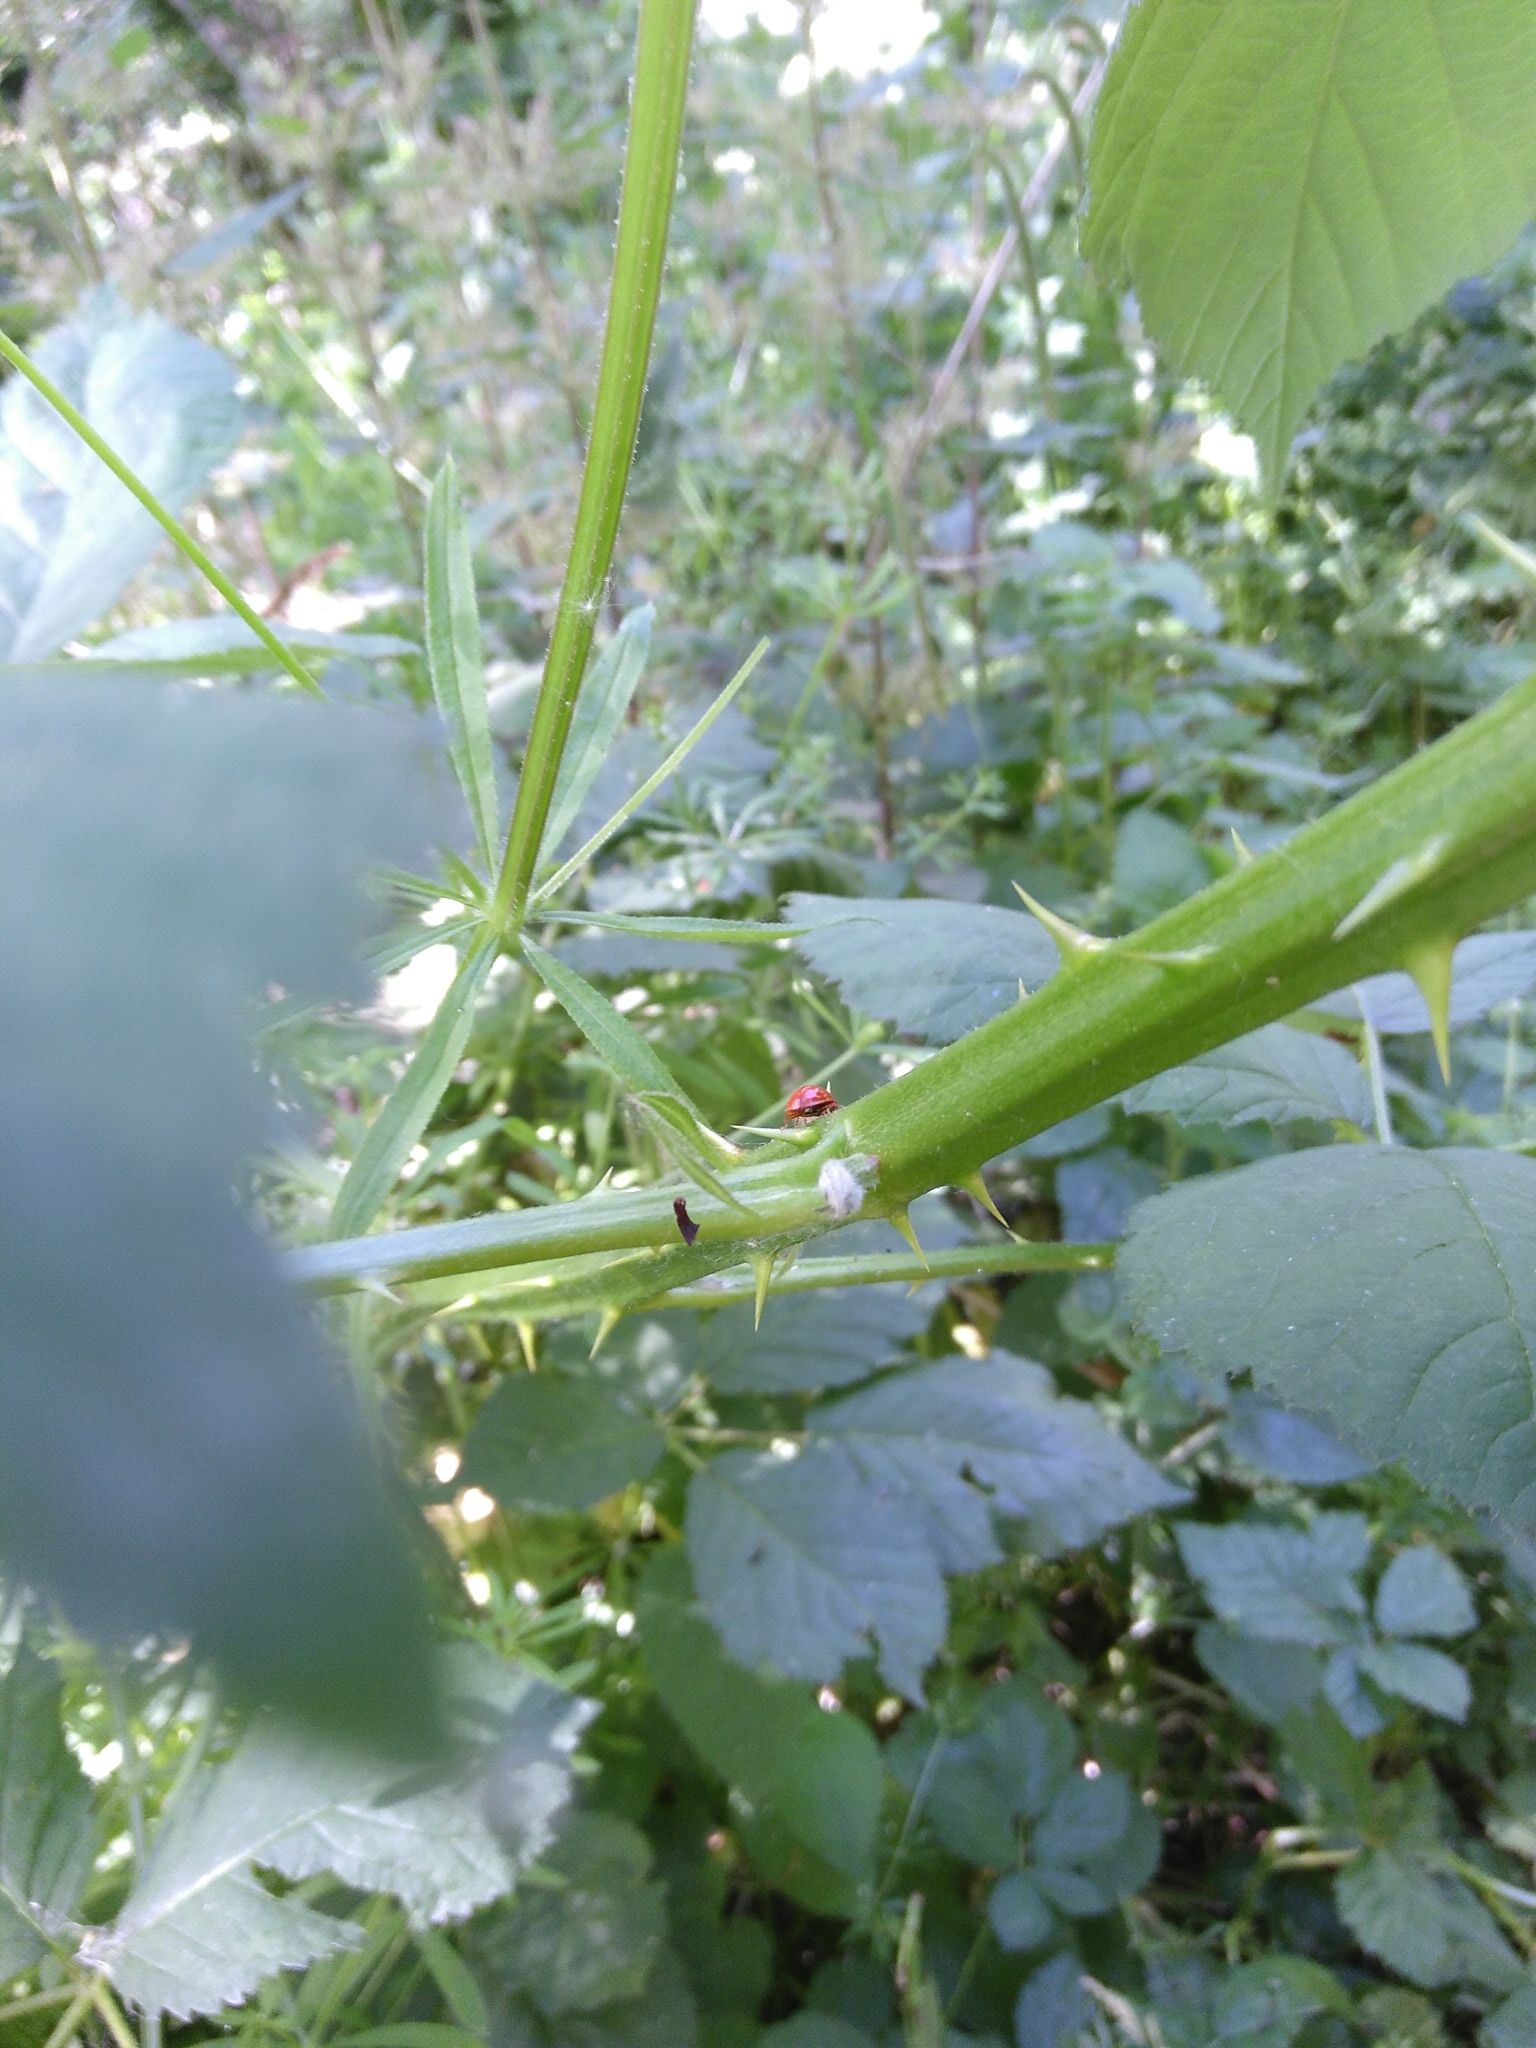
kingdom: Animalia
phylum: Arthropoda
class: Insecta
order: Coleoptera
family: Coccinellidae
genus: Harmonia
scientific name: Harmonia axyridis
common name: Harlequin ladybird
